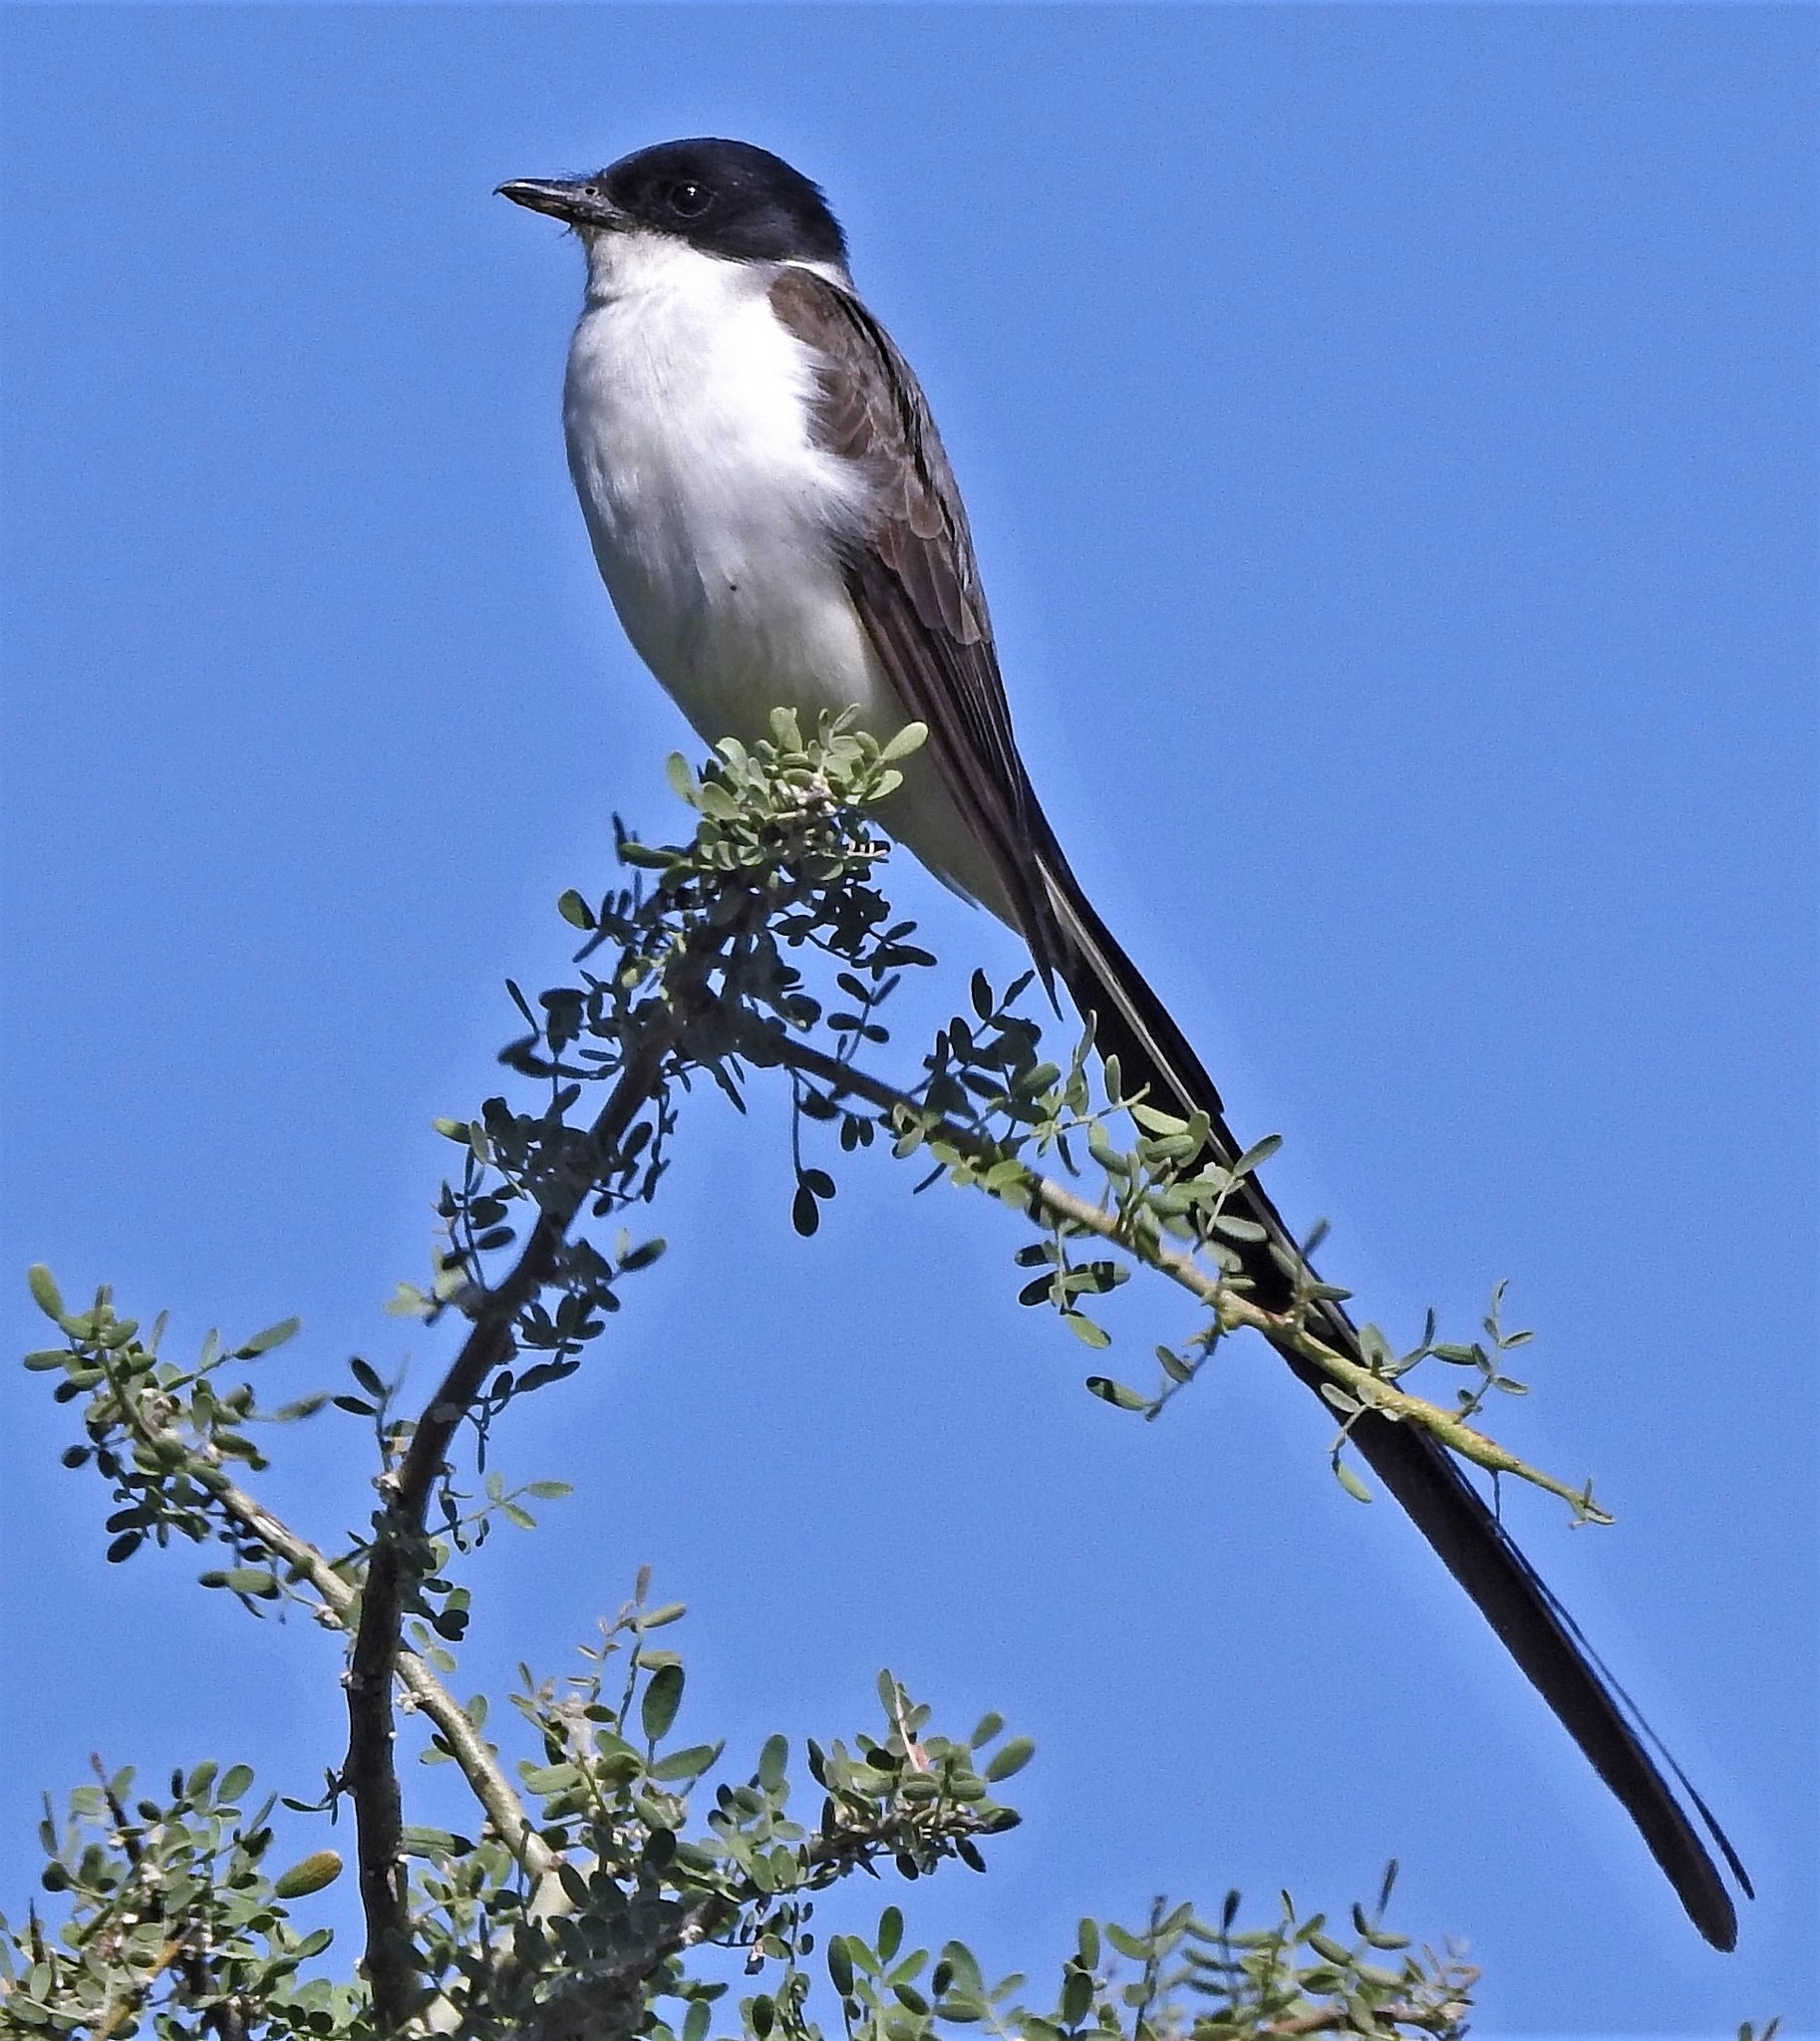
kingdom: Animalia
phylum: Chordata
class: Aves
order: Passeriformes
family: Tyrannidae
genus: Tyrannus
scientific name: Tyrannus savana
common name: Fork-tailed flycatcher
